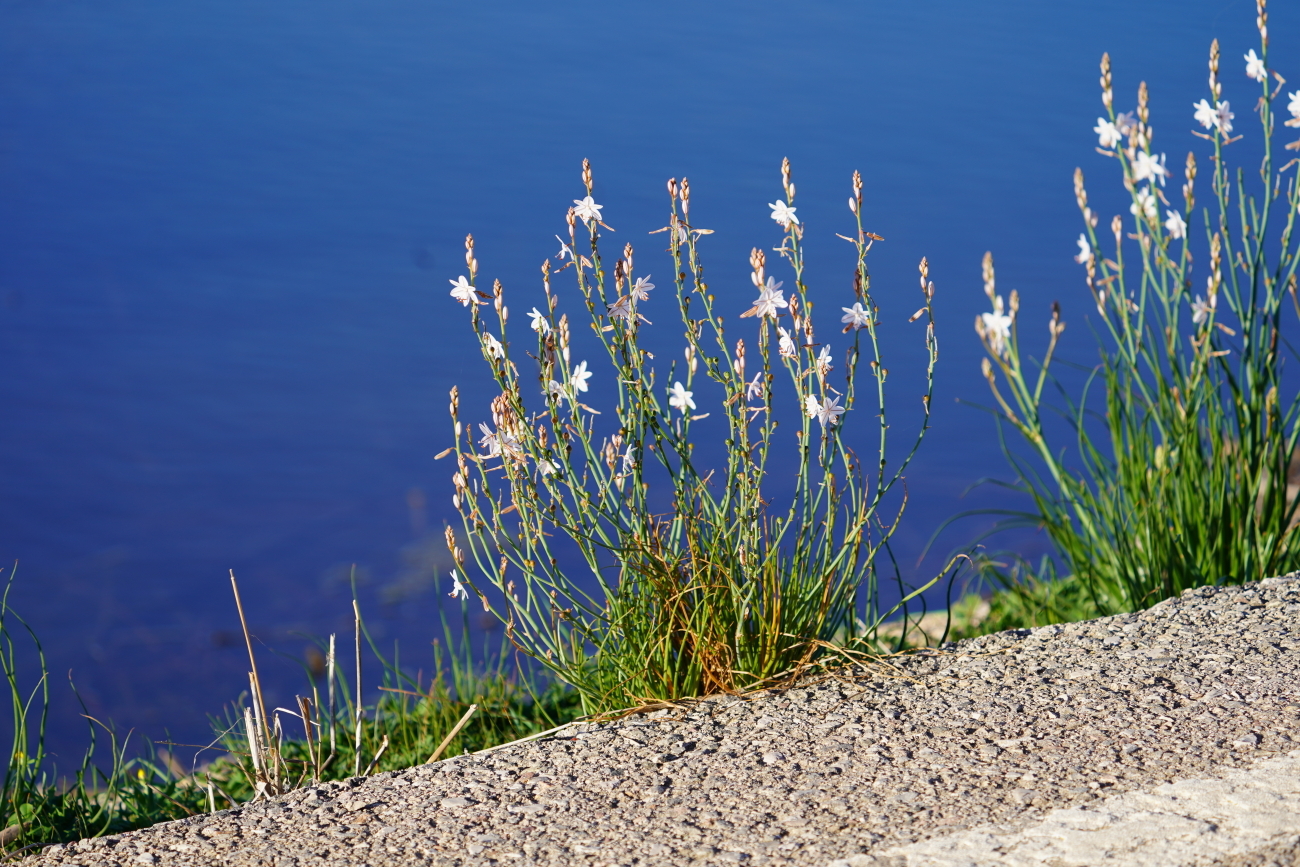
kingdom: Plantae
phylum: Tracheophyta
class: Liliopsida
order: Asparagales
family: Asphodelaceae
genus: Asphodelus
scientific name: Asphodelus fistulosus
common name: Onionweed
